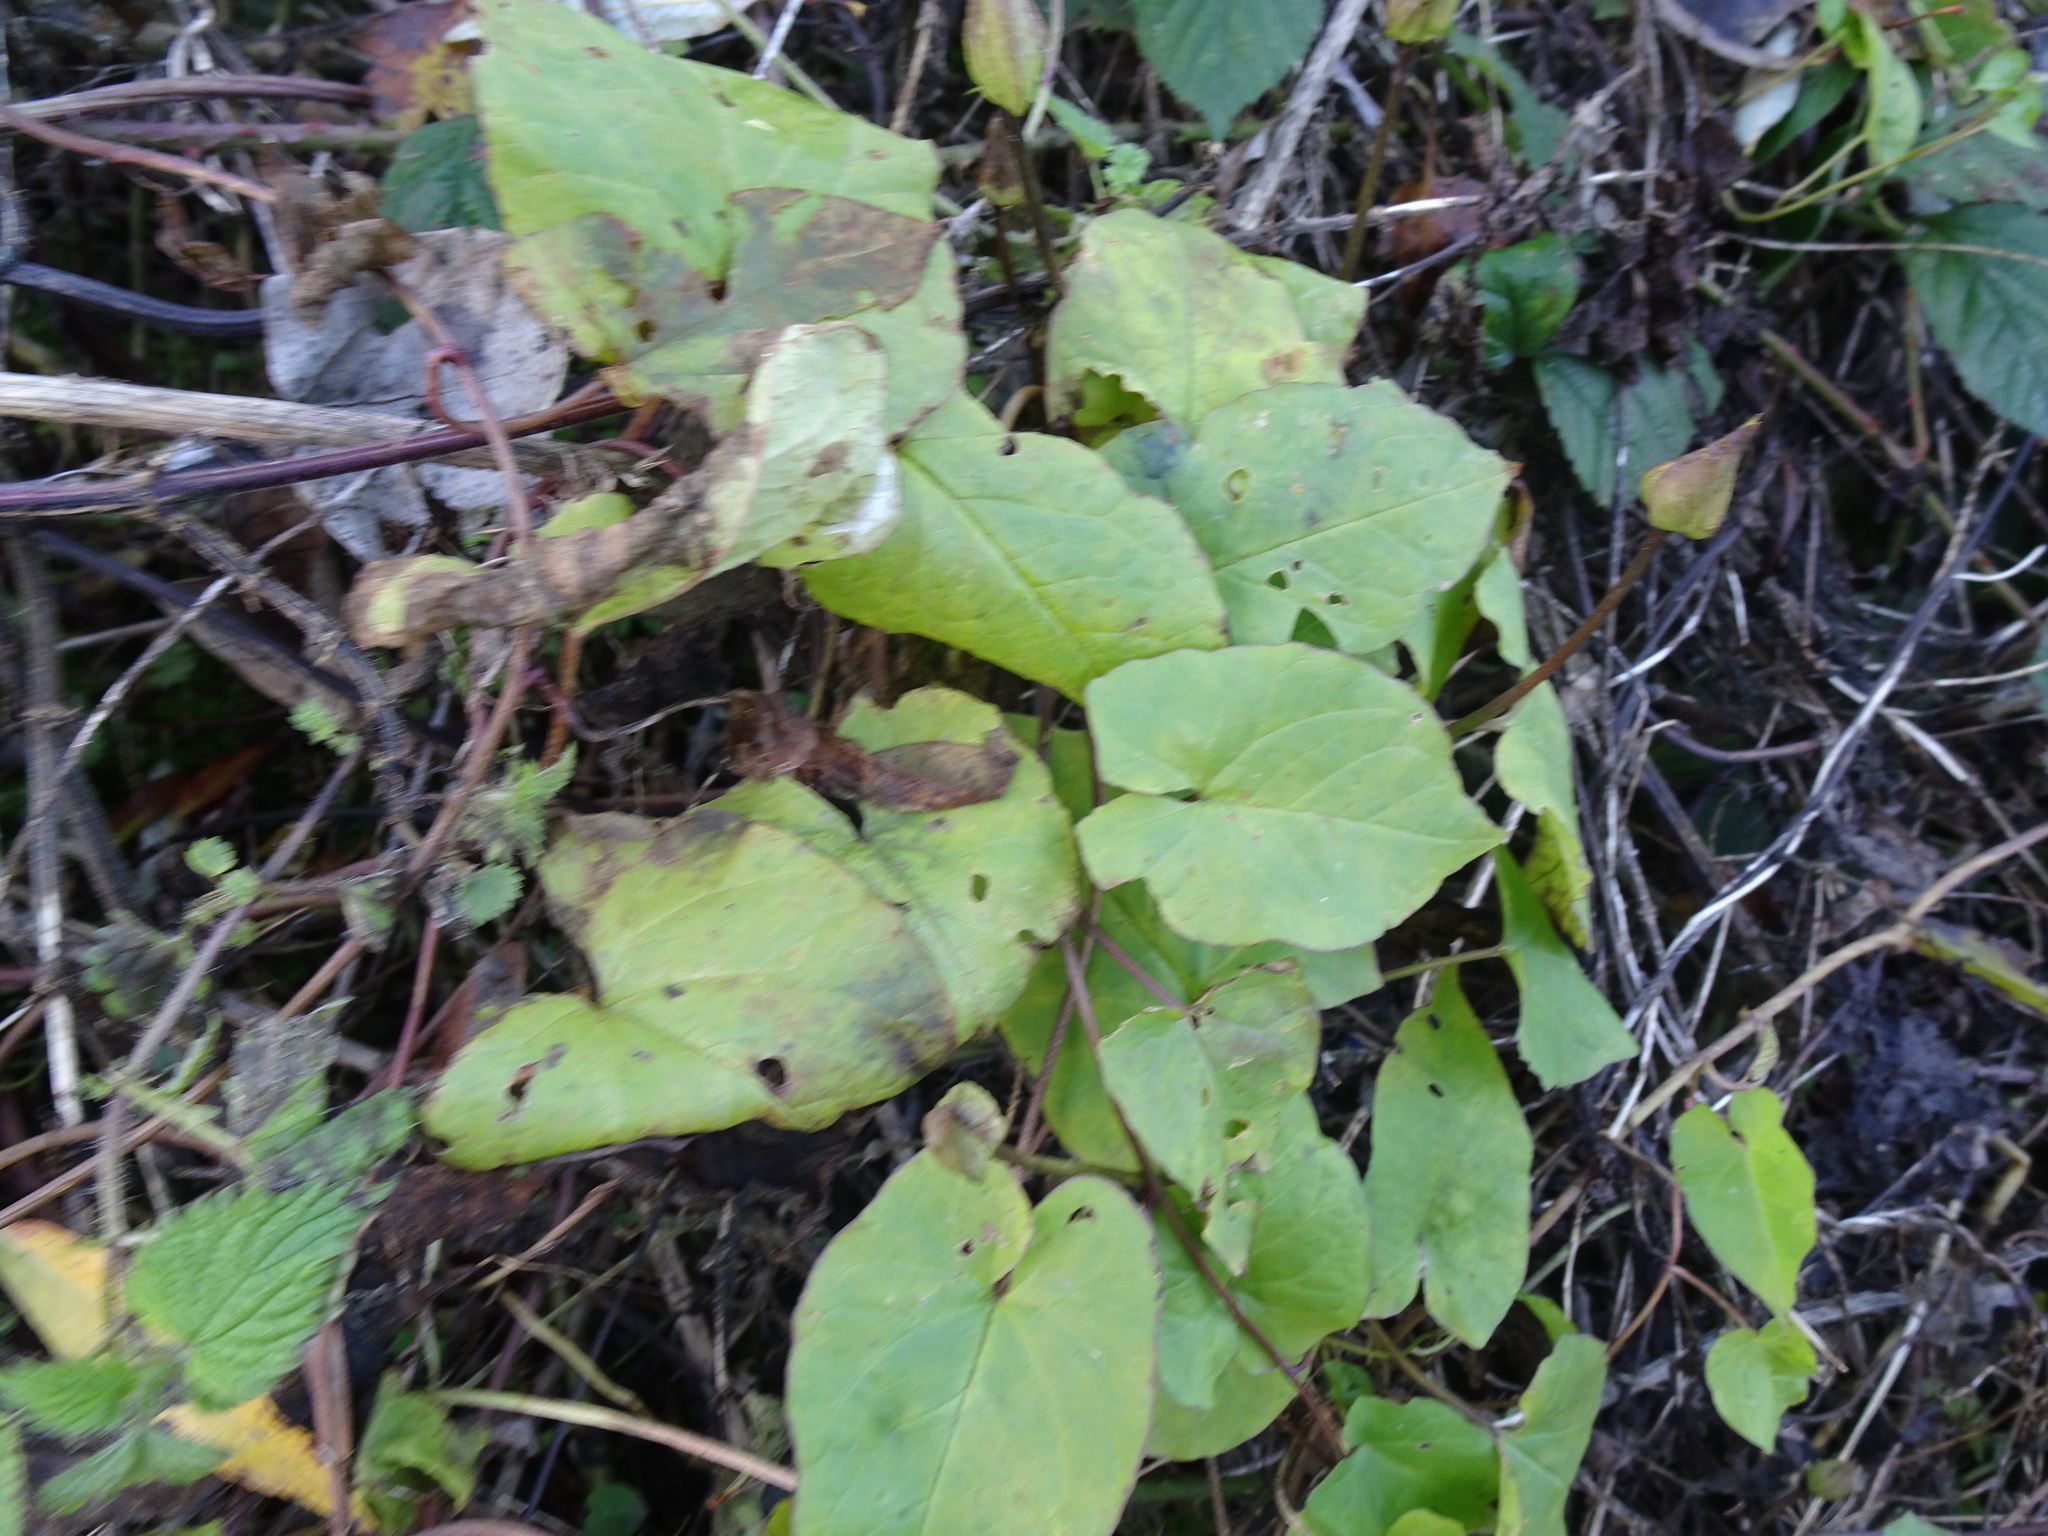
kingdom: Plantae
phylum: Tracheophyta
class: Magnoliopsida
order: Solanales
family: Convolvulaceae
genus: Calystegia
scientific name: Calystegia silvatica
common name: Large bindweed
